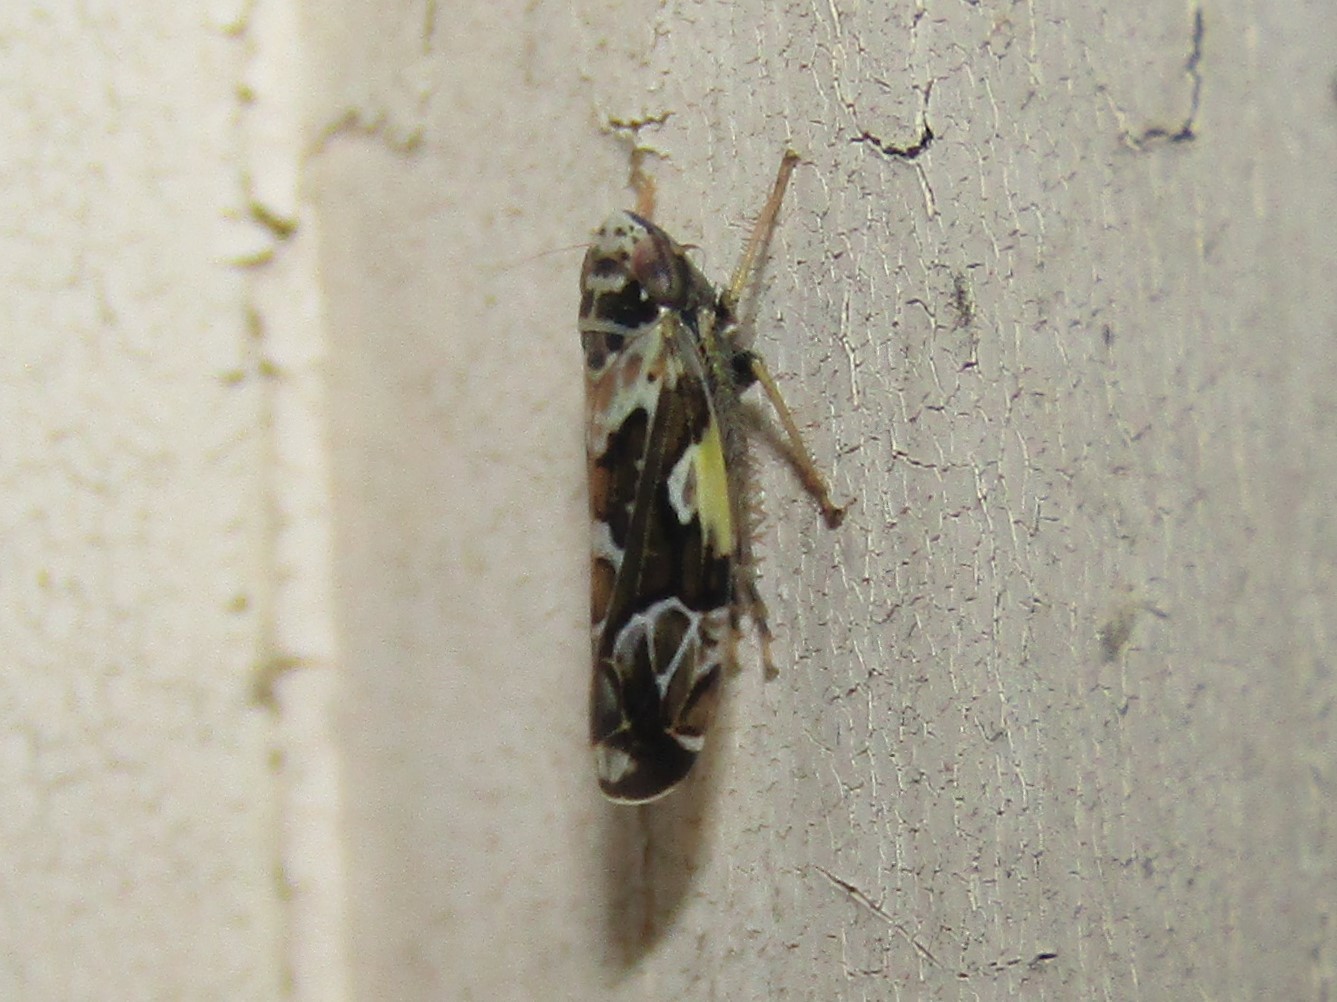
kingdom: Animalia
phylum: Arthropoda
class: Insecta
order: Hemiptera
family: Cicadellidae
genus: Sanctanus
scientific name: Sanctanus cruciatus
